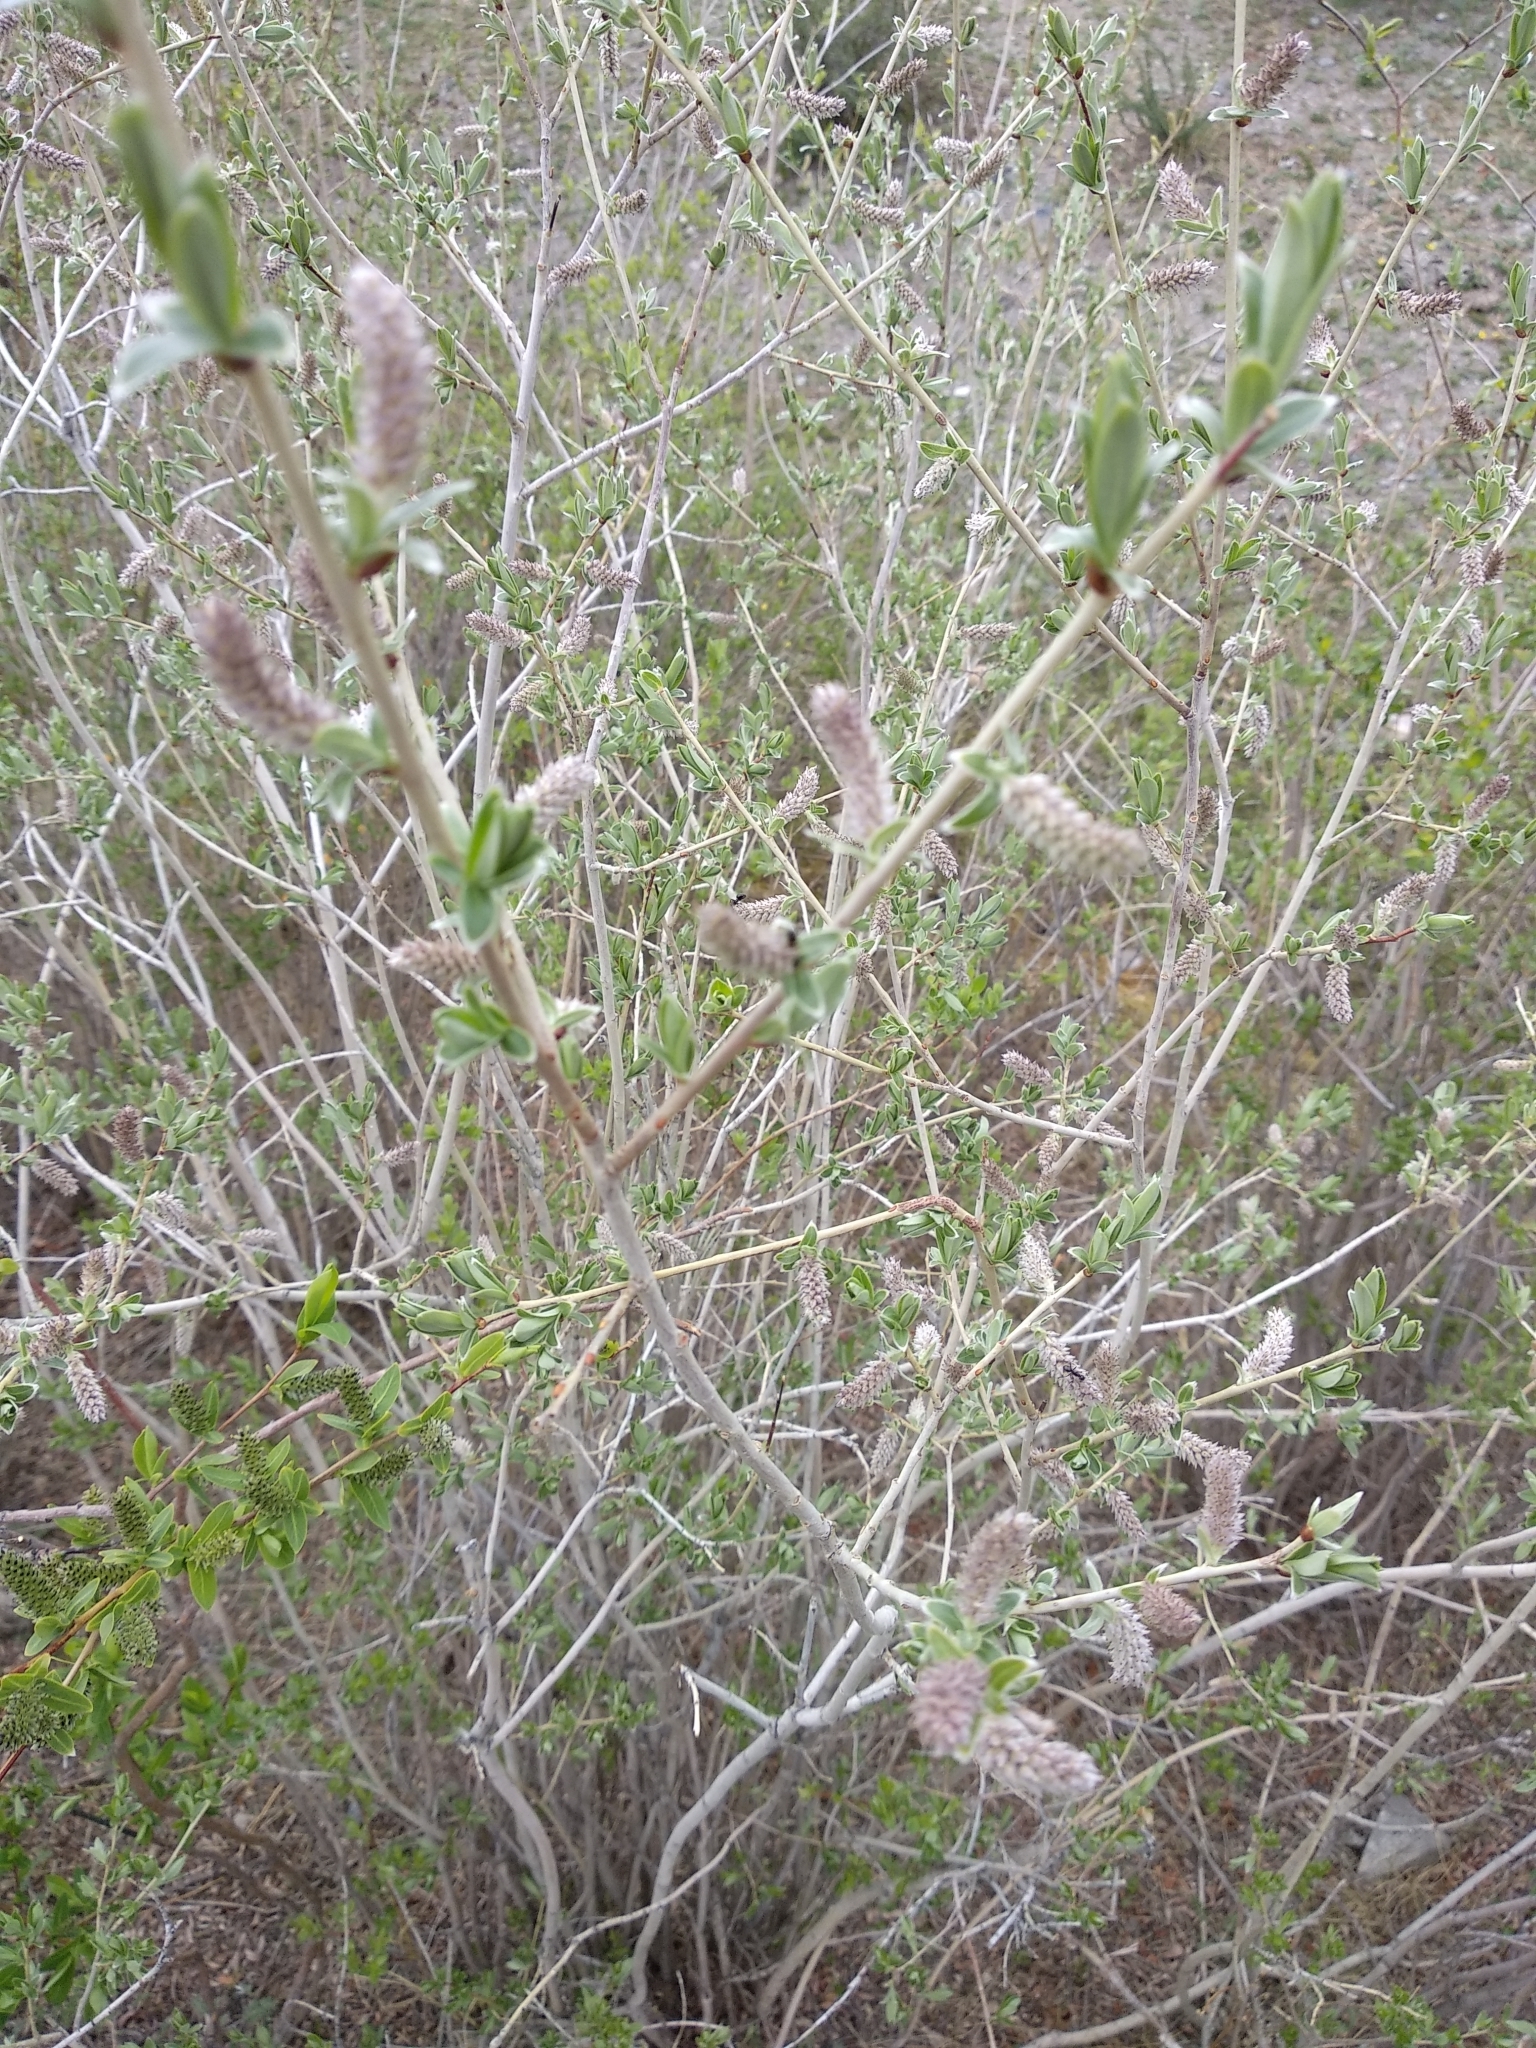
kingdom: Plantae
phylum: Tracheophyta
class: Magnoliopsida
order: Malpighiales
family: Salicaceae
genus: Salix
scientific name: Salix ledebouriana
